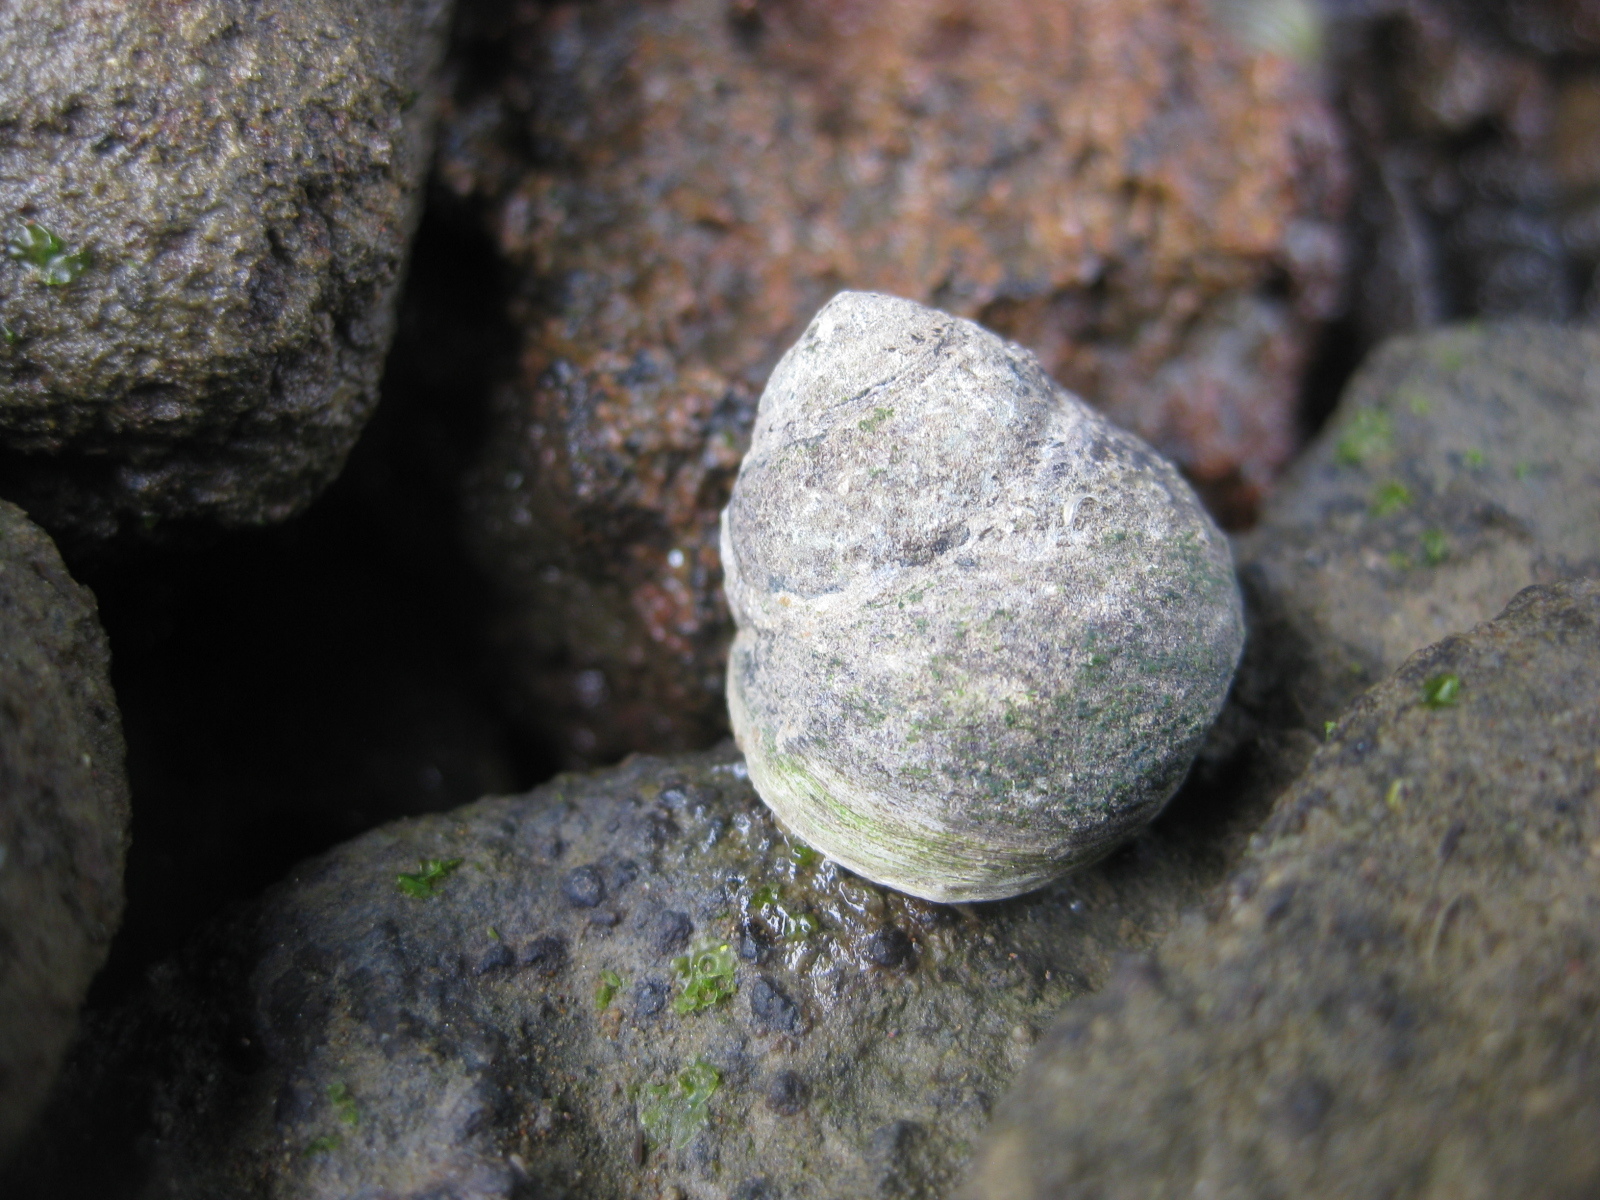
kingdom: Animalia
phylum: Mollusca
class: Gastropoda
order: Trochida
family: Trochidae
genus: Diloma
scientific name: Diloma subrostratum
